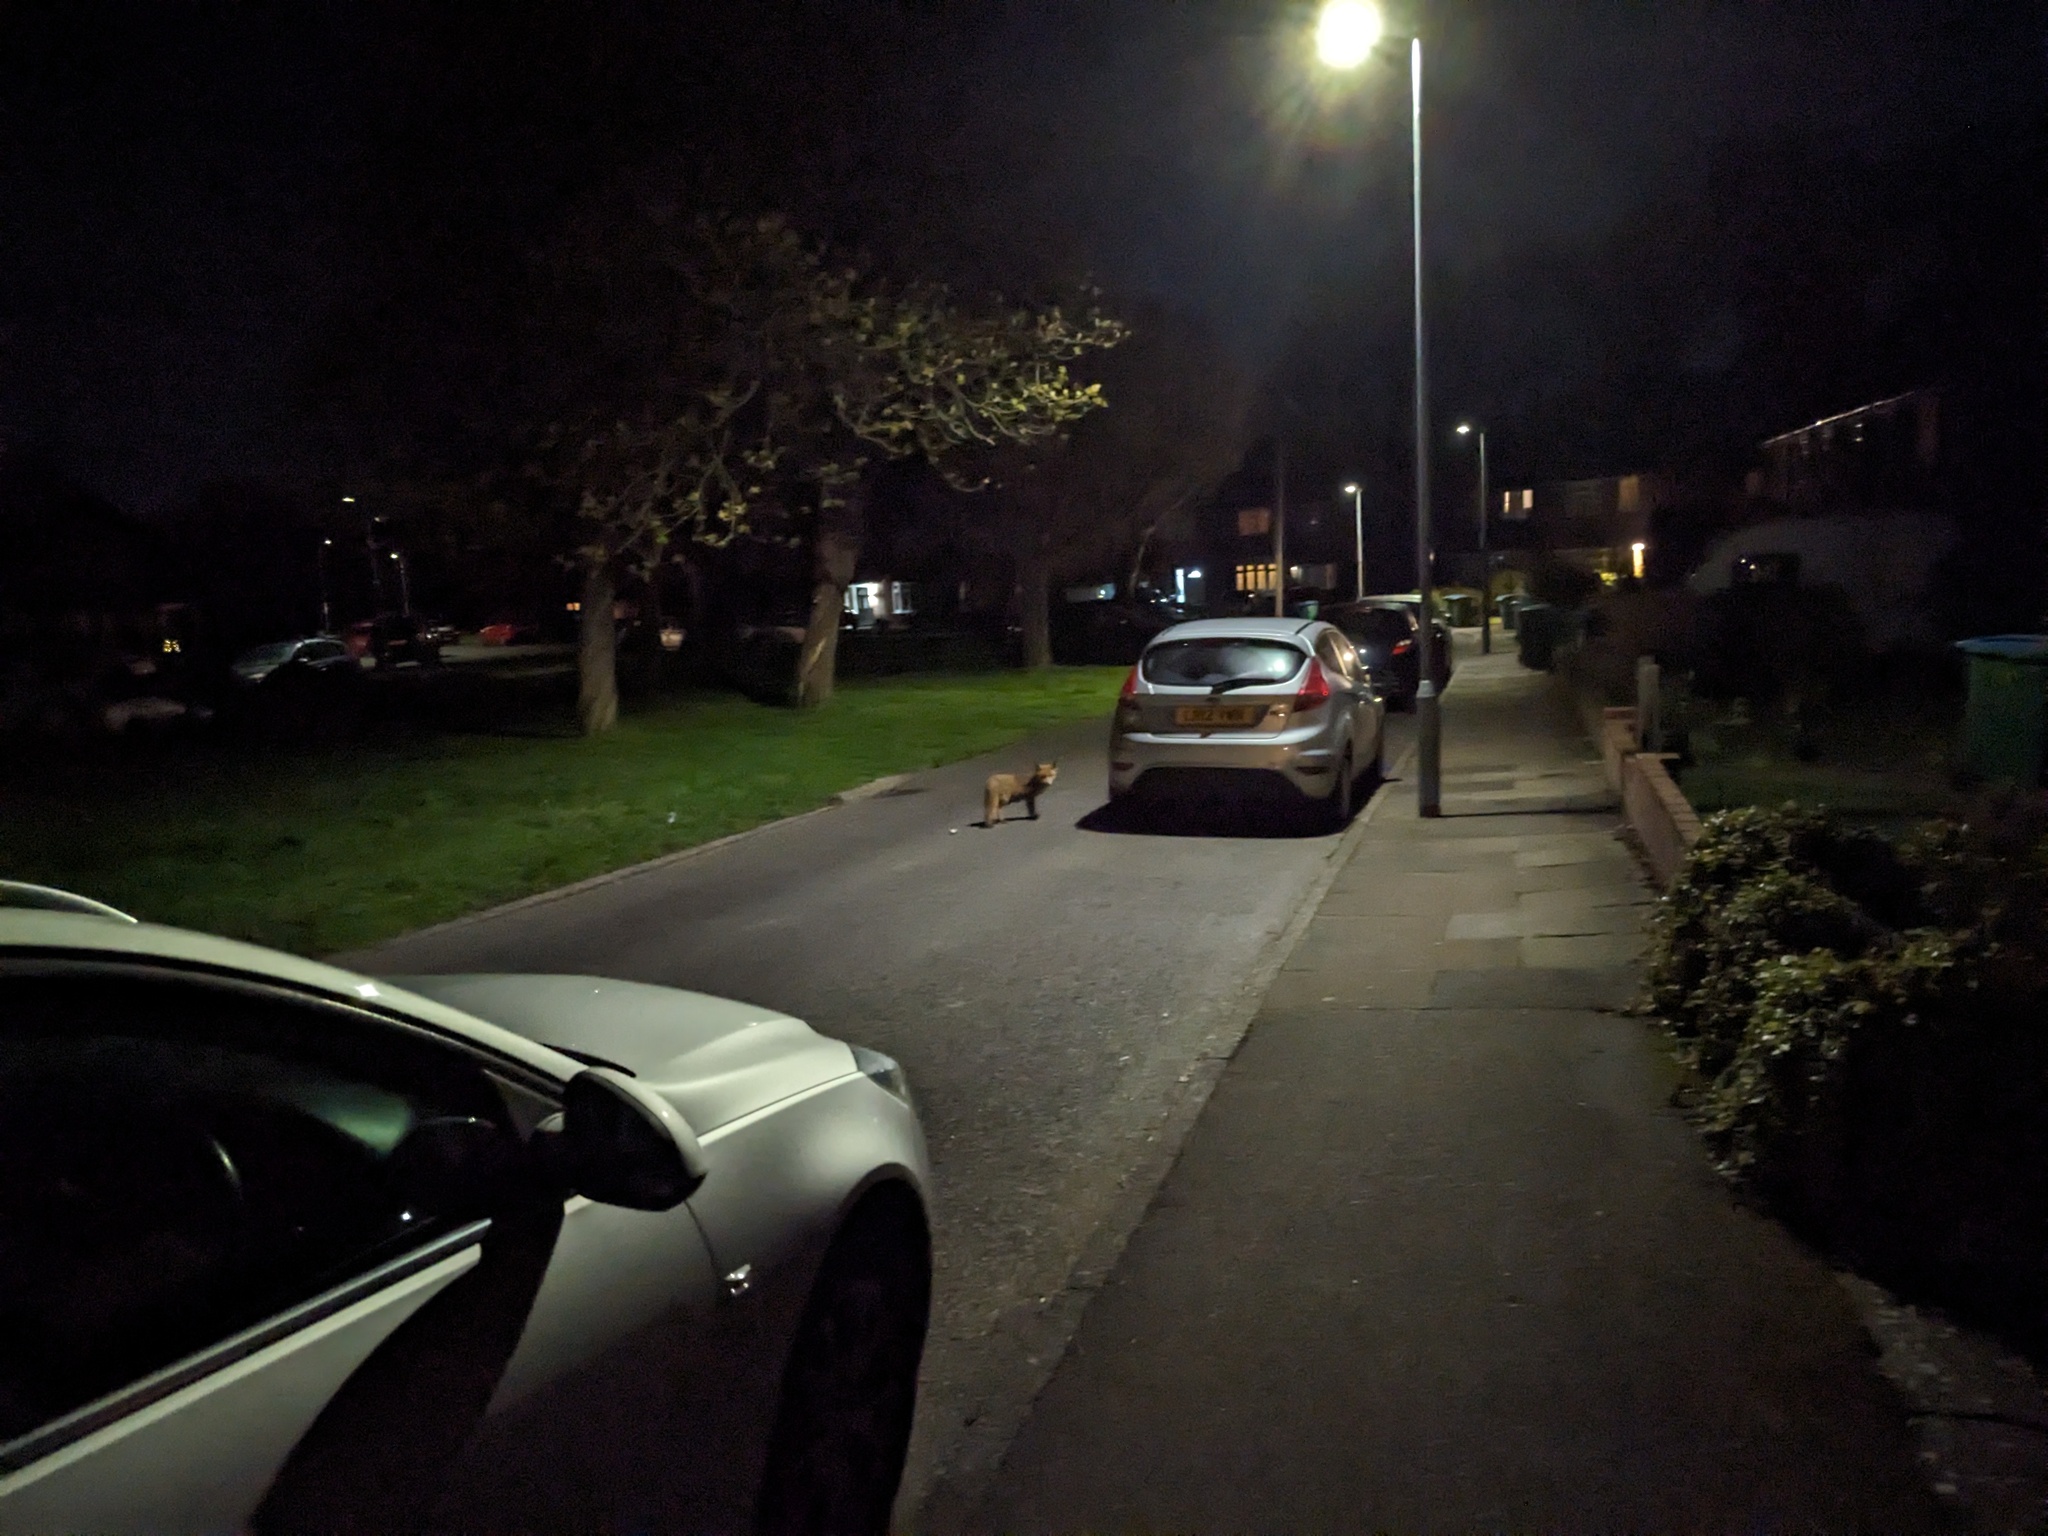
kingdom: Animalia
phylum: Chordata
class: Mammalia
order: Carnivora
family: Canidae
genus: Vulpes
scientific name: Vulpes vulpes
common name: Red fox
